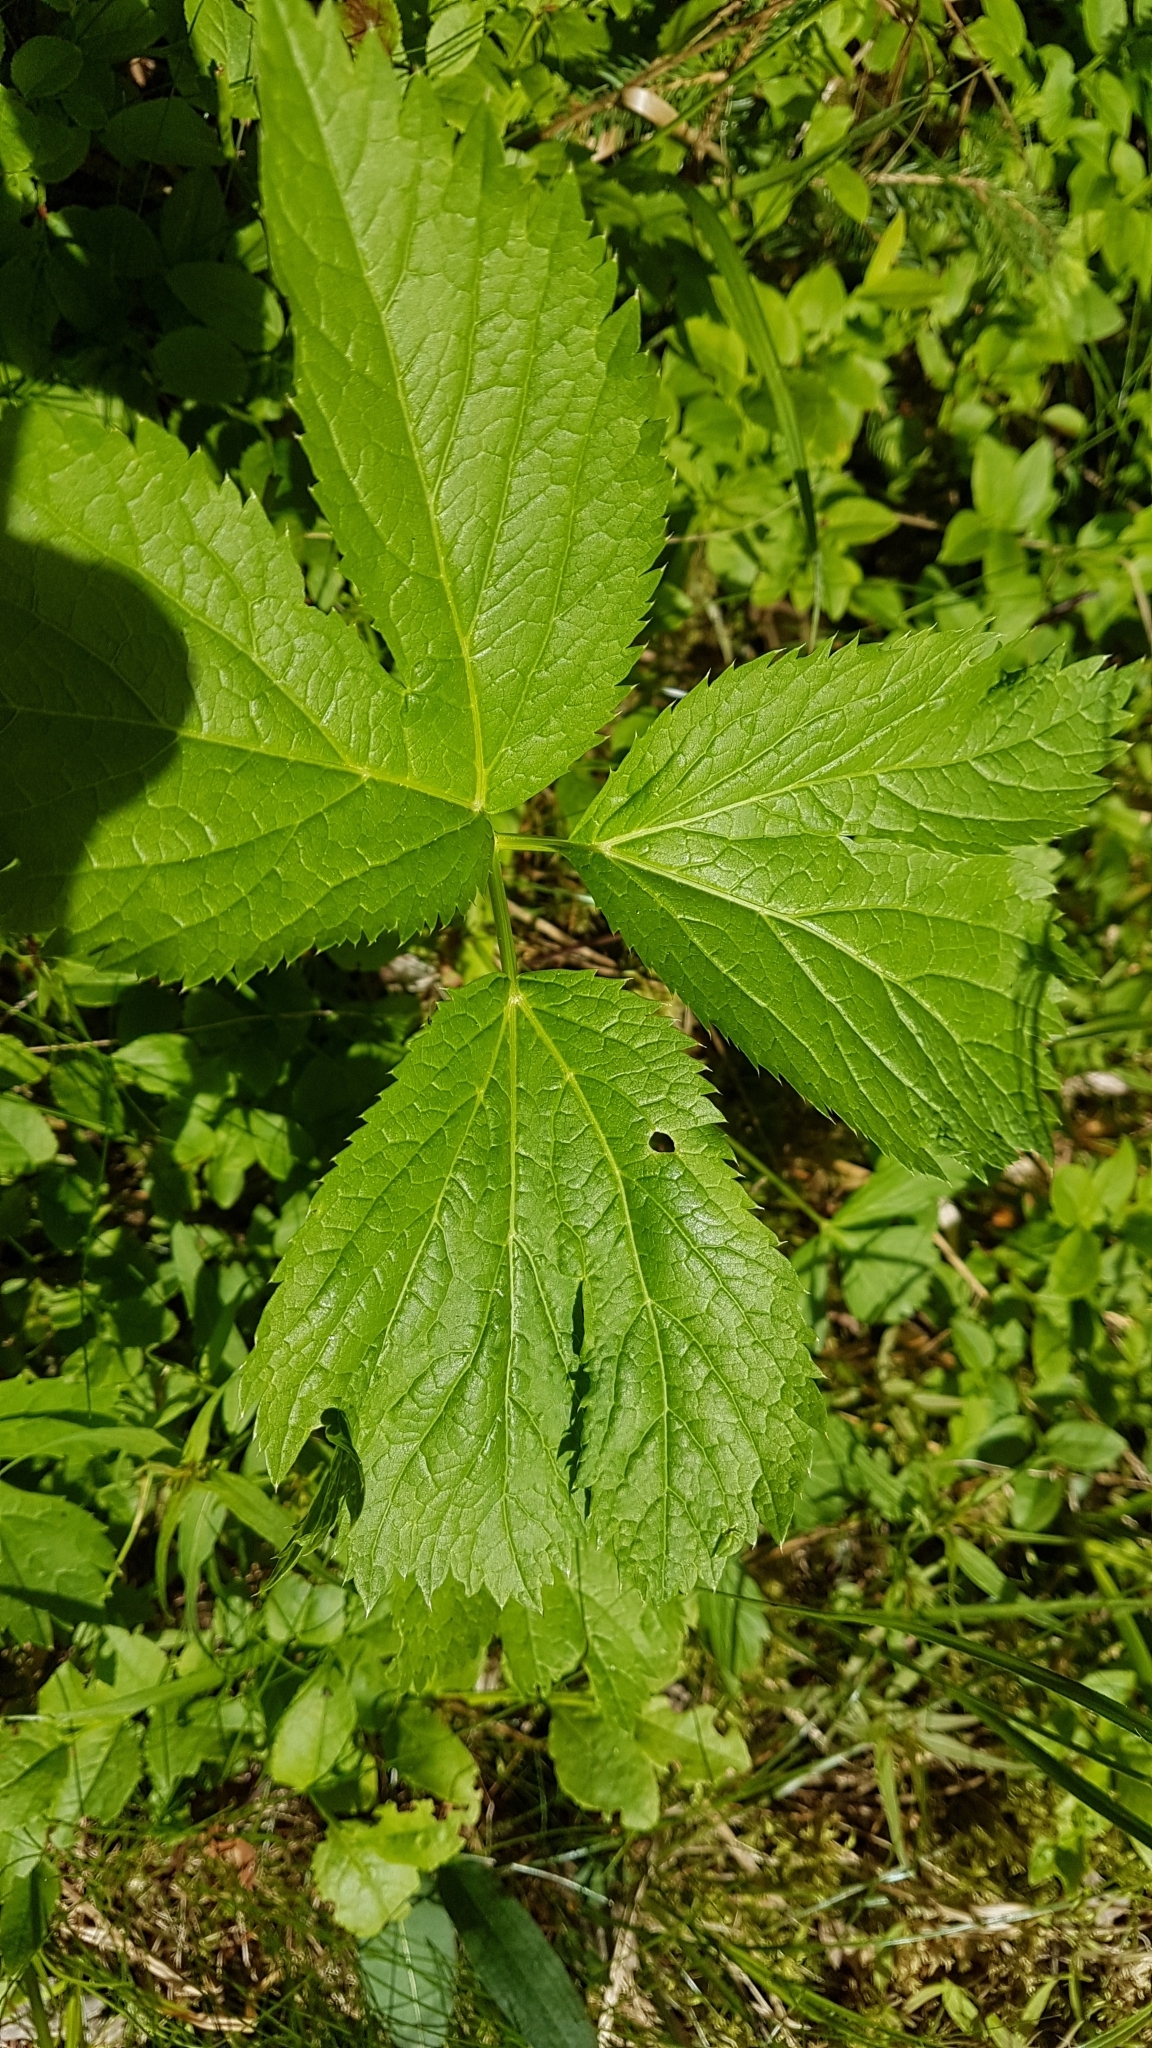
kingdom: Plantae
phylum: Tracheophyta
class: Magnoliopsida
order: Apiales
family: Apiaceae
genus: Imperatoria
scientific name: Imperatoria ostruthium
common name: Masterwort
